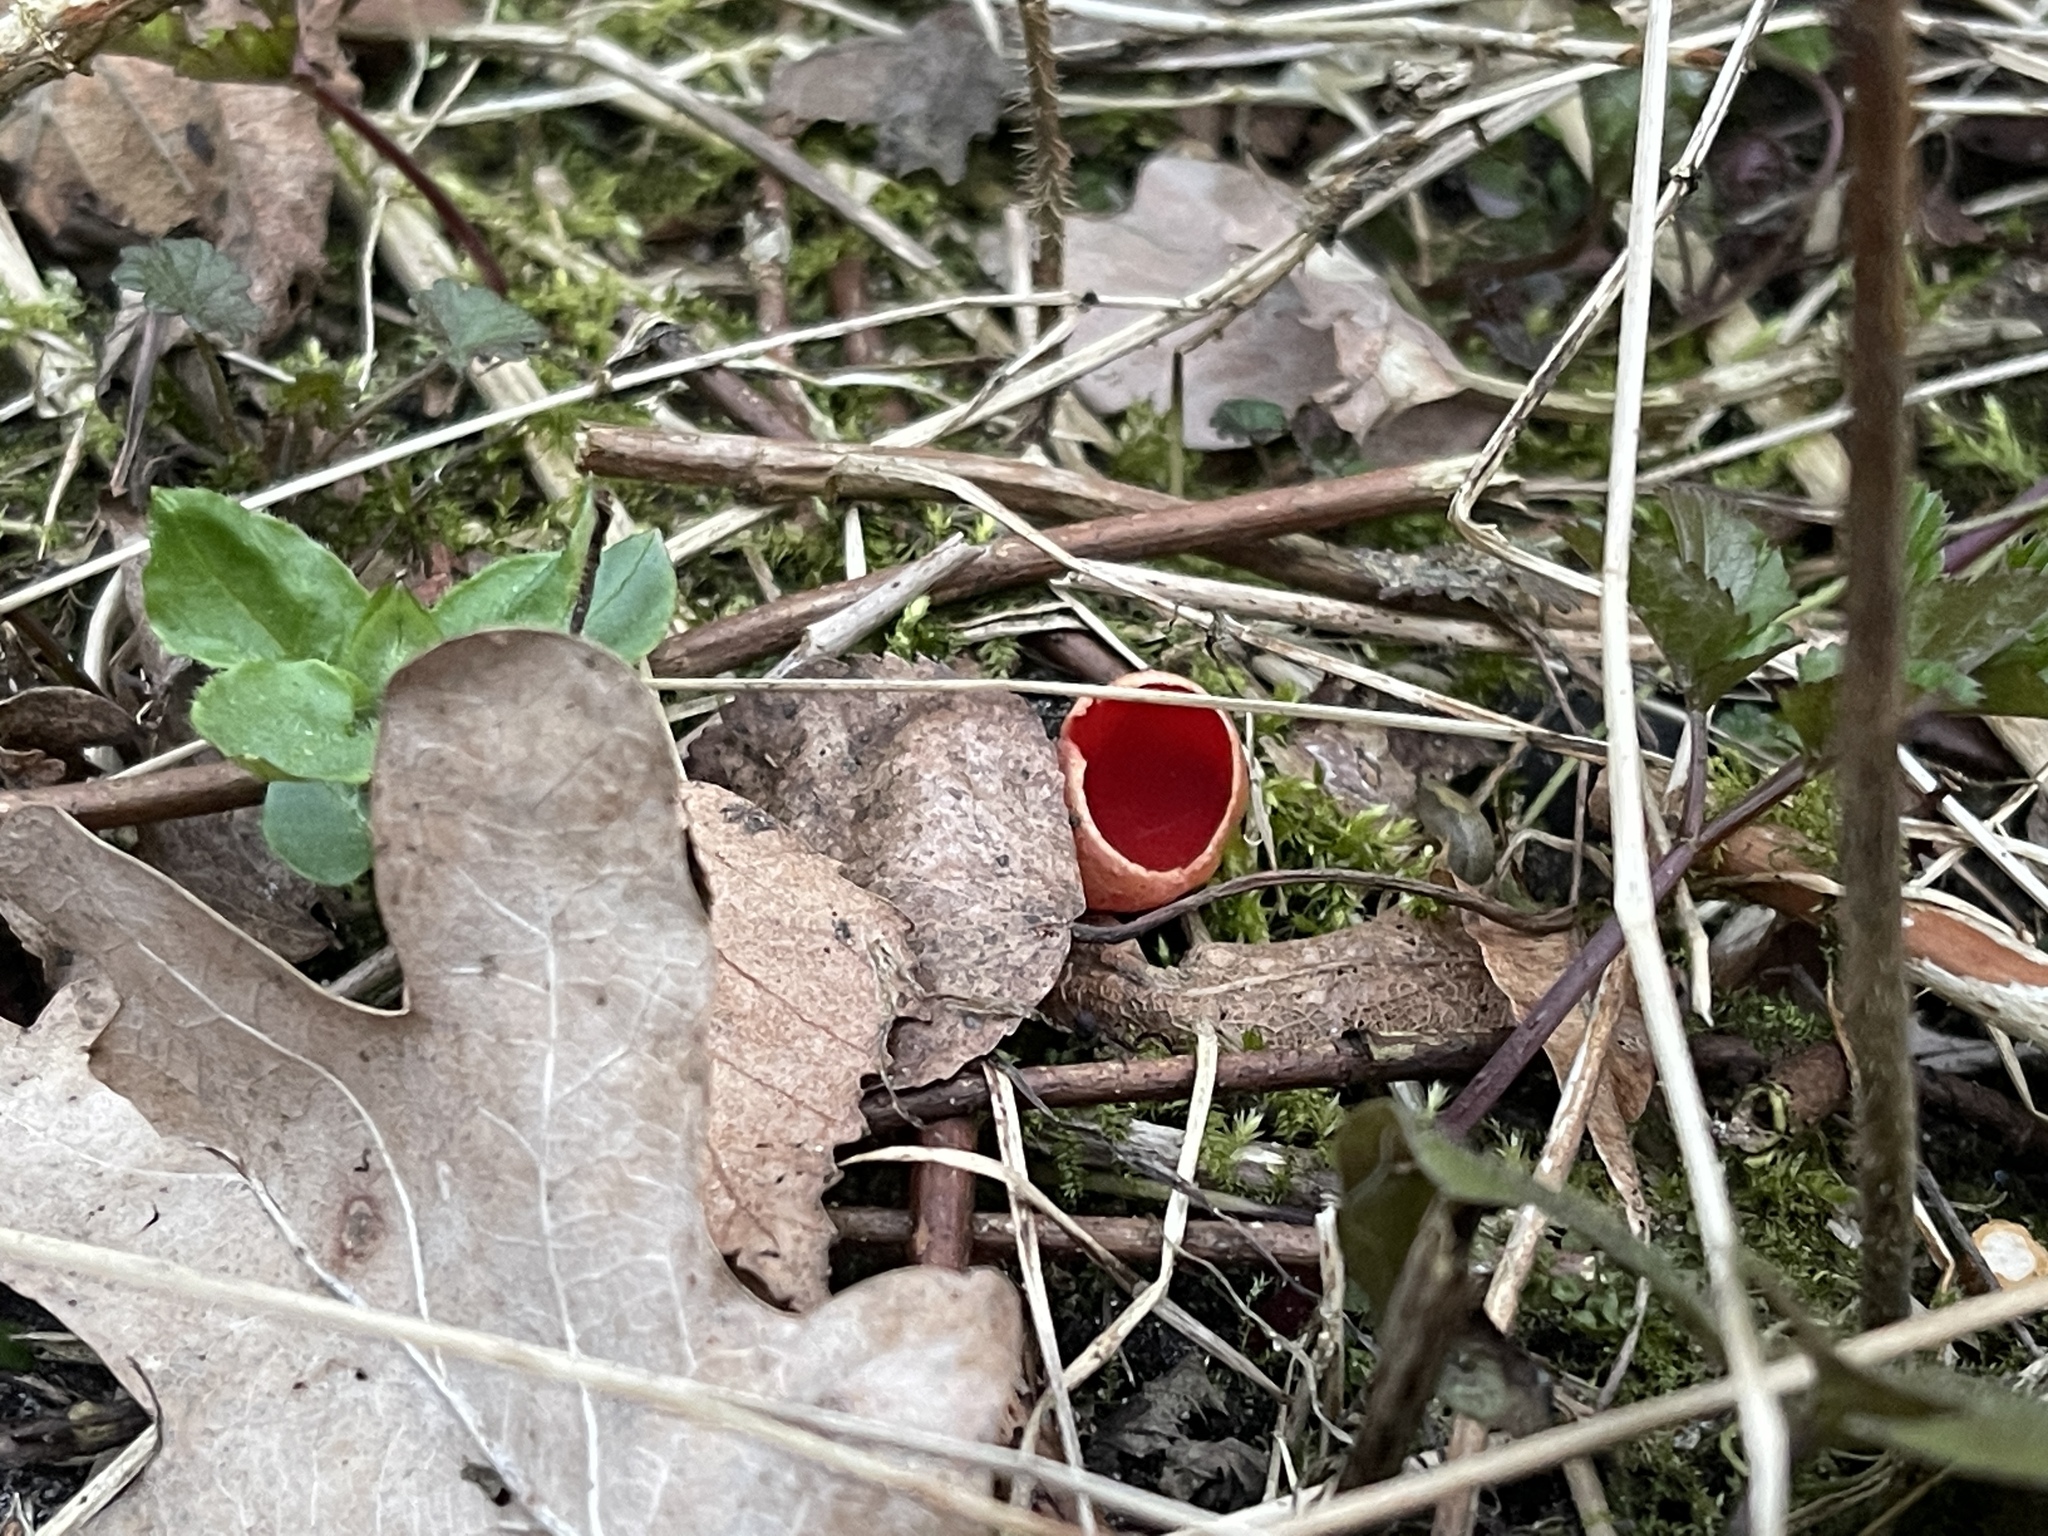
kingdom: Fungi
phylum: Ascomycota
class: Pezizomycetes
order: Pezizales
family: Sarcoscyphaceae
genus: Sarcoscypha
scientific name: Sarcoscypha
